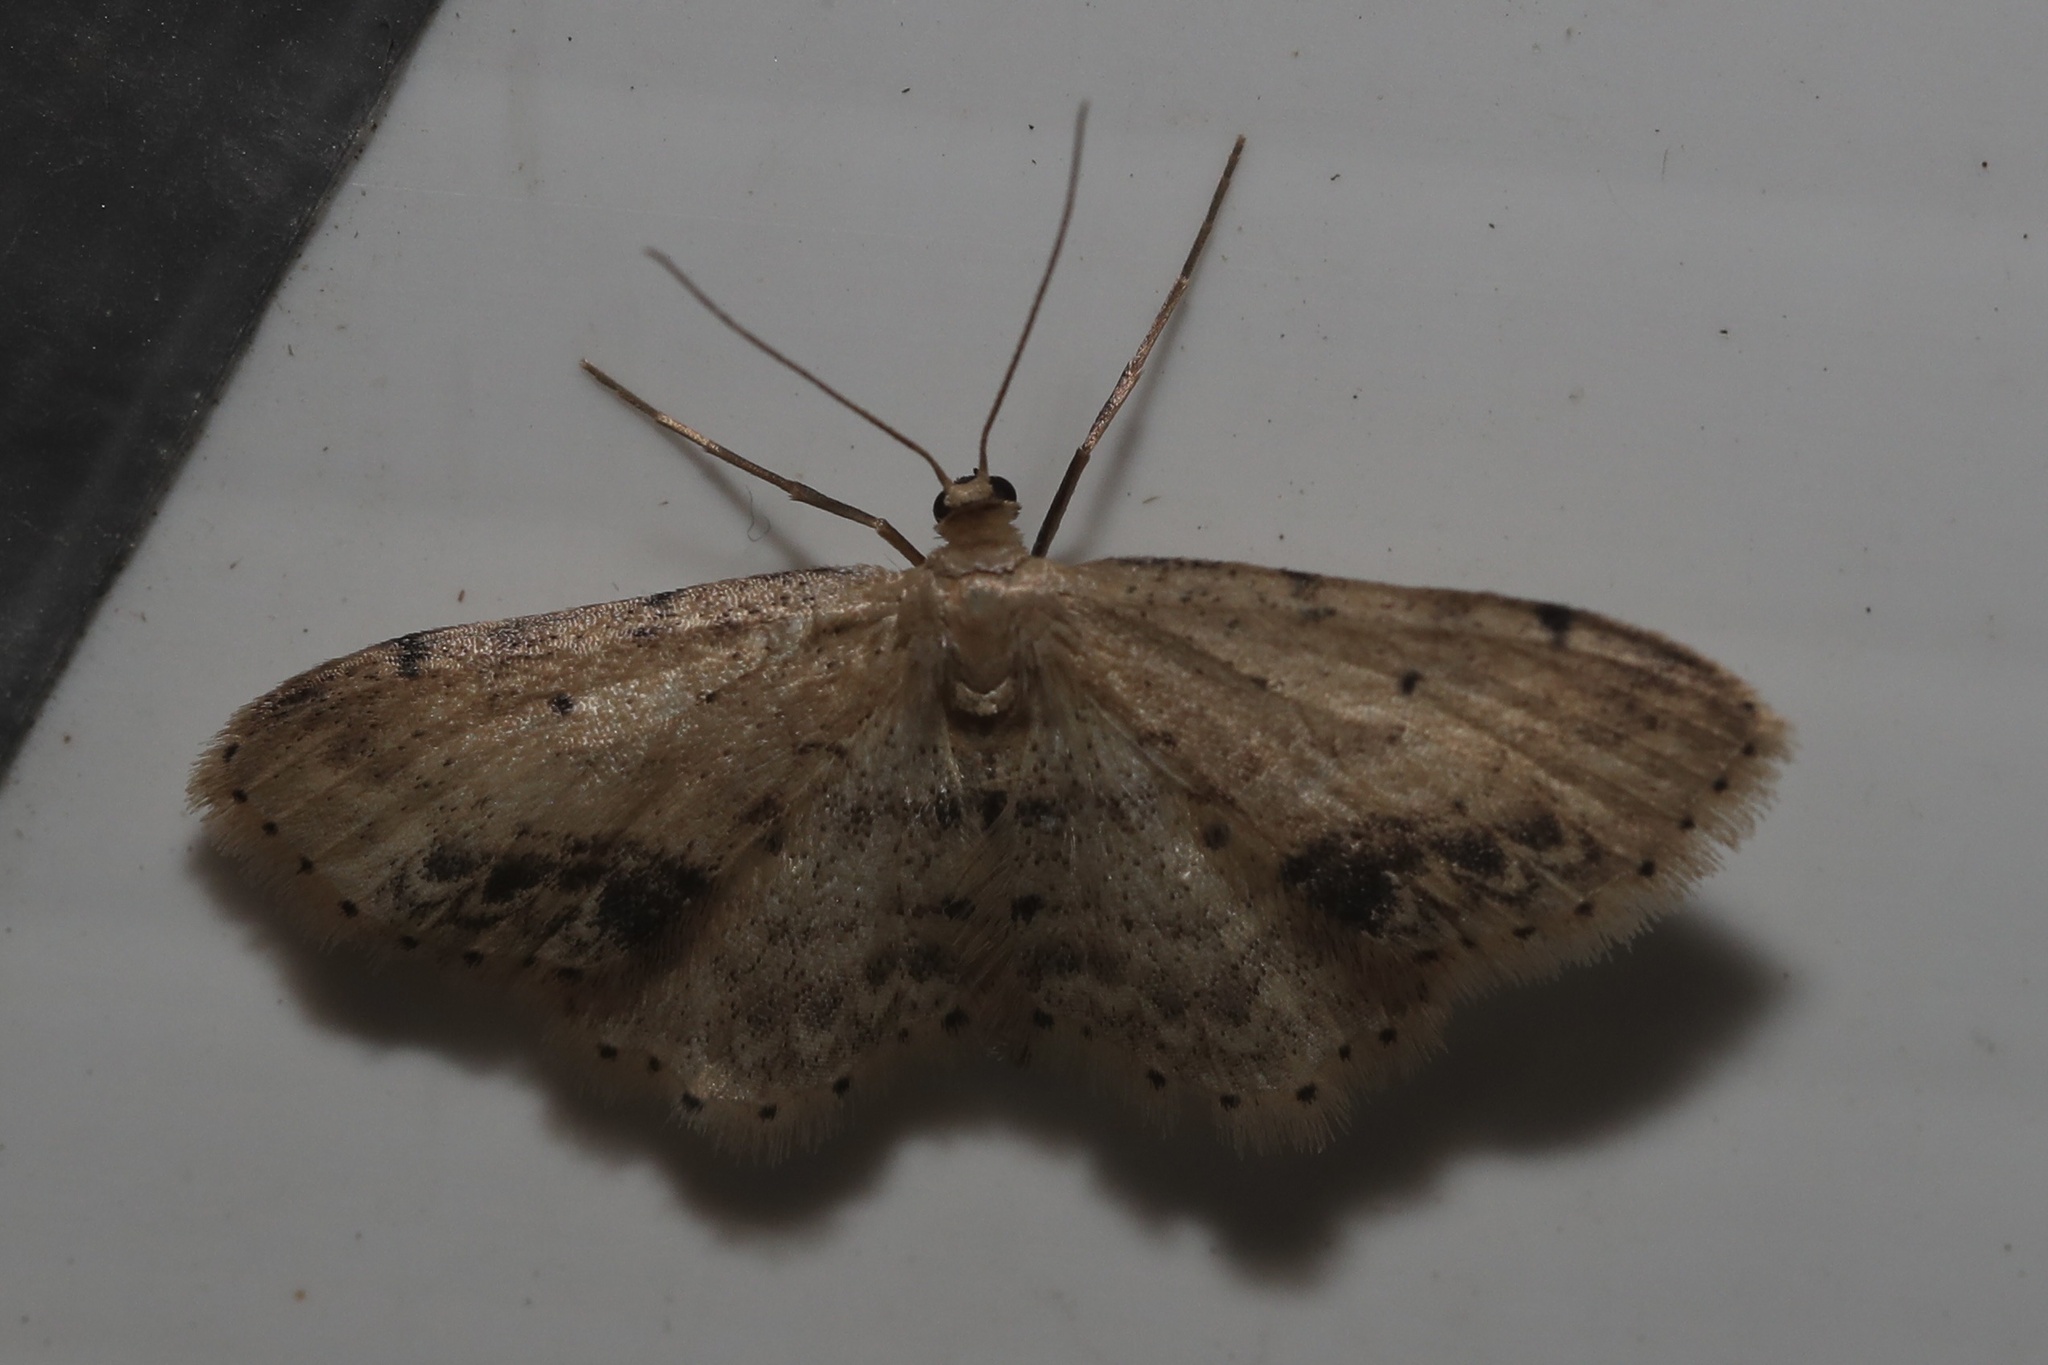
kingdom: Animalia
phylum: Arthropoda
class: Insecta
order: Lepidoptera
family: Geometridae
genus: Idaea
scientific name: Idaea dimidiata
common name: Single-dotted wave
